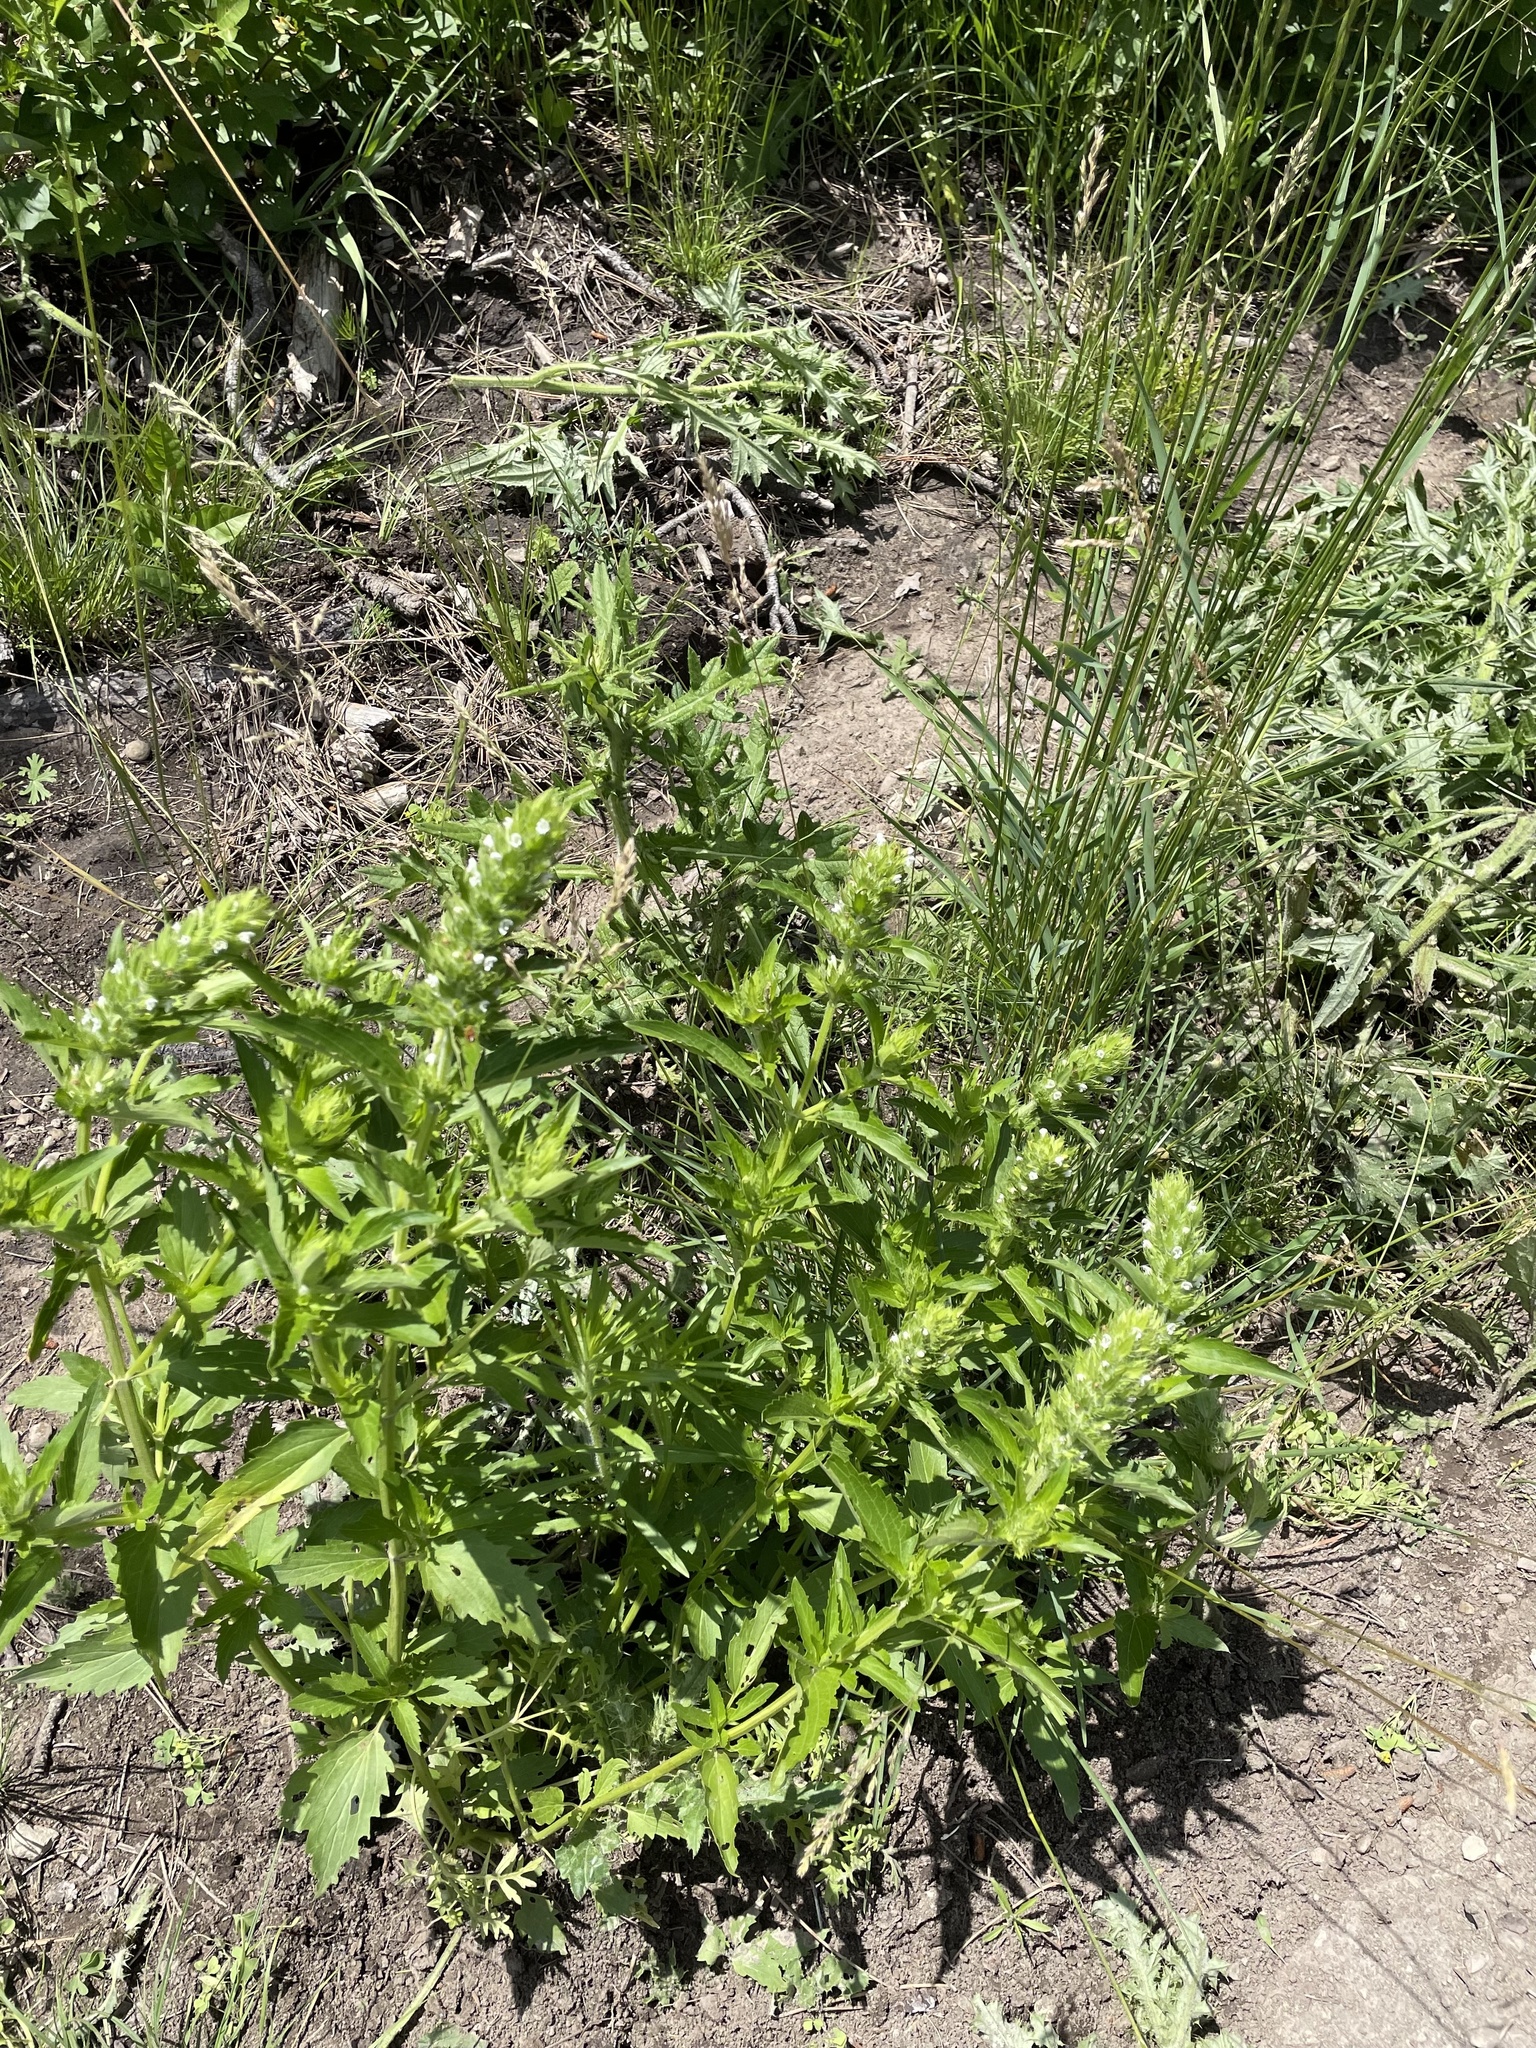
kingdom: Plantae
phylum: Tracheophyta
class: Magnoliopsida
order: Lamiales
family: Lamiaceae
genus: Dracocephalum
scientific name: Dracocephalum parviflorum
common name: American dragonhead
